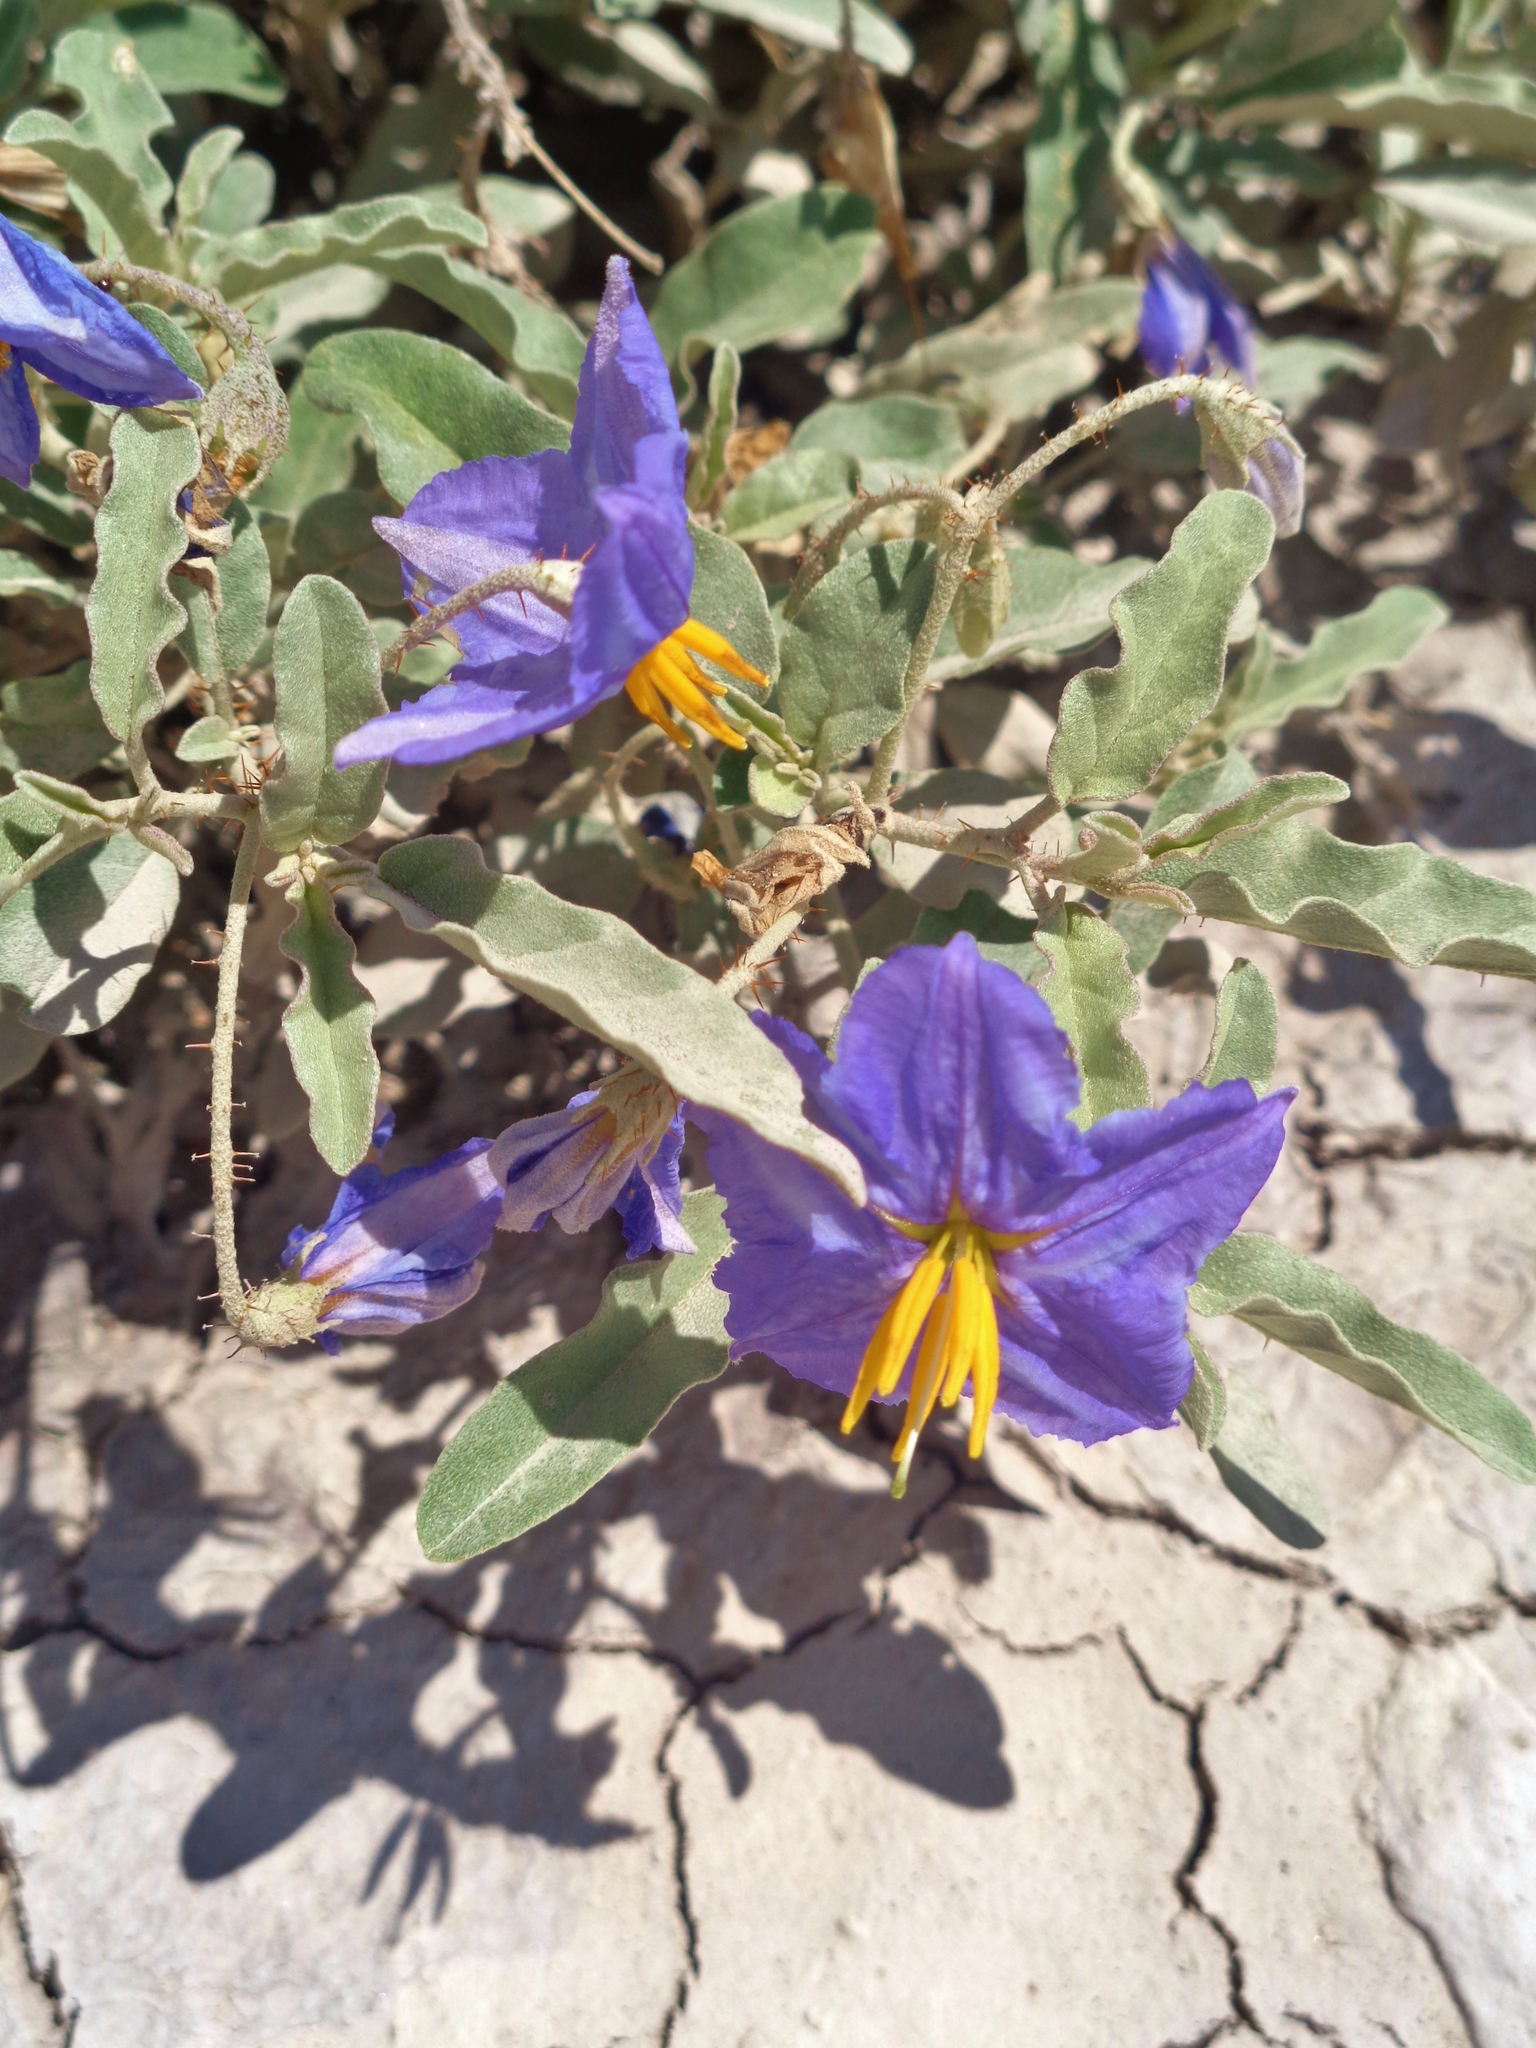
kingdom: Plantae
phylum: Tracheophyta
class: Magnoliopsida
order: Solanales
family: Solanaceae
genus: Solanum
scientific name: Solanum elaeagnifolium
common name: Silverleaf nightshade
